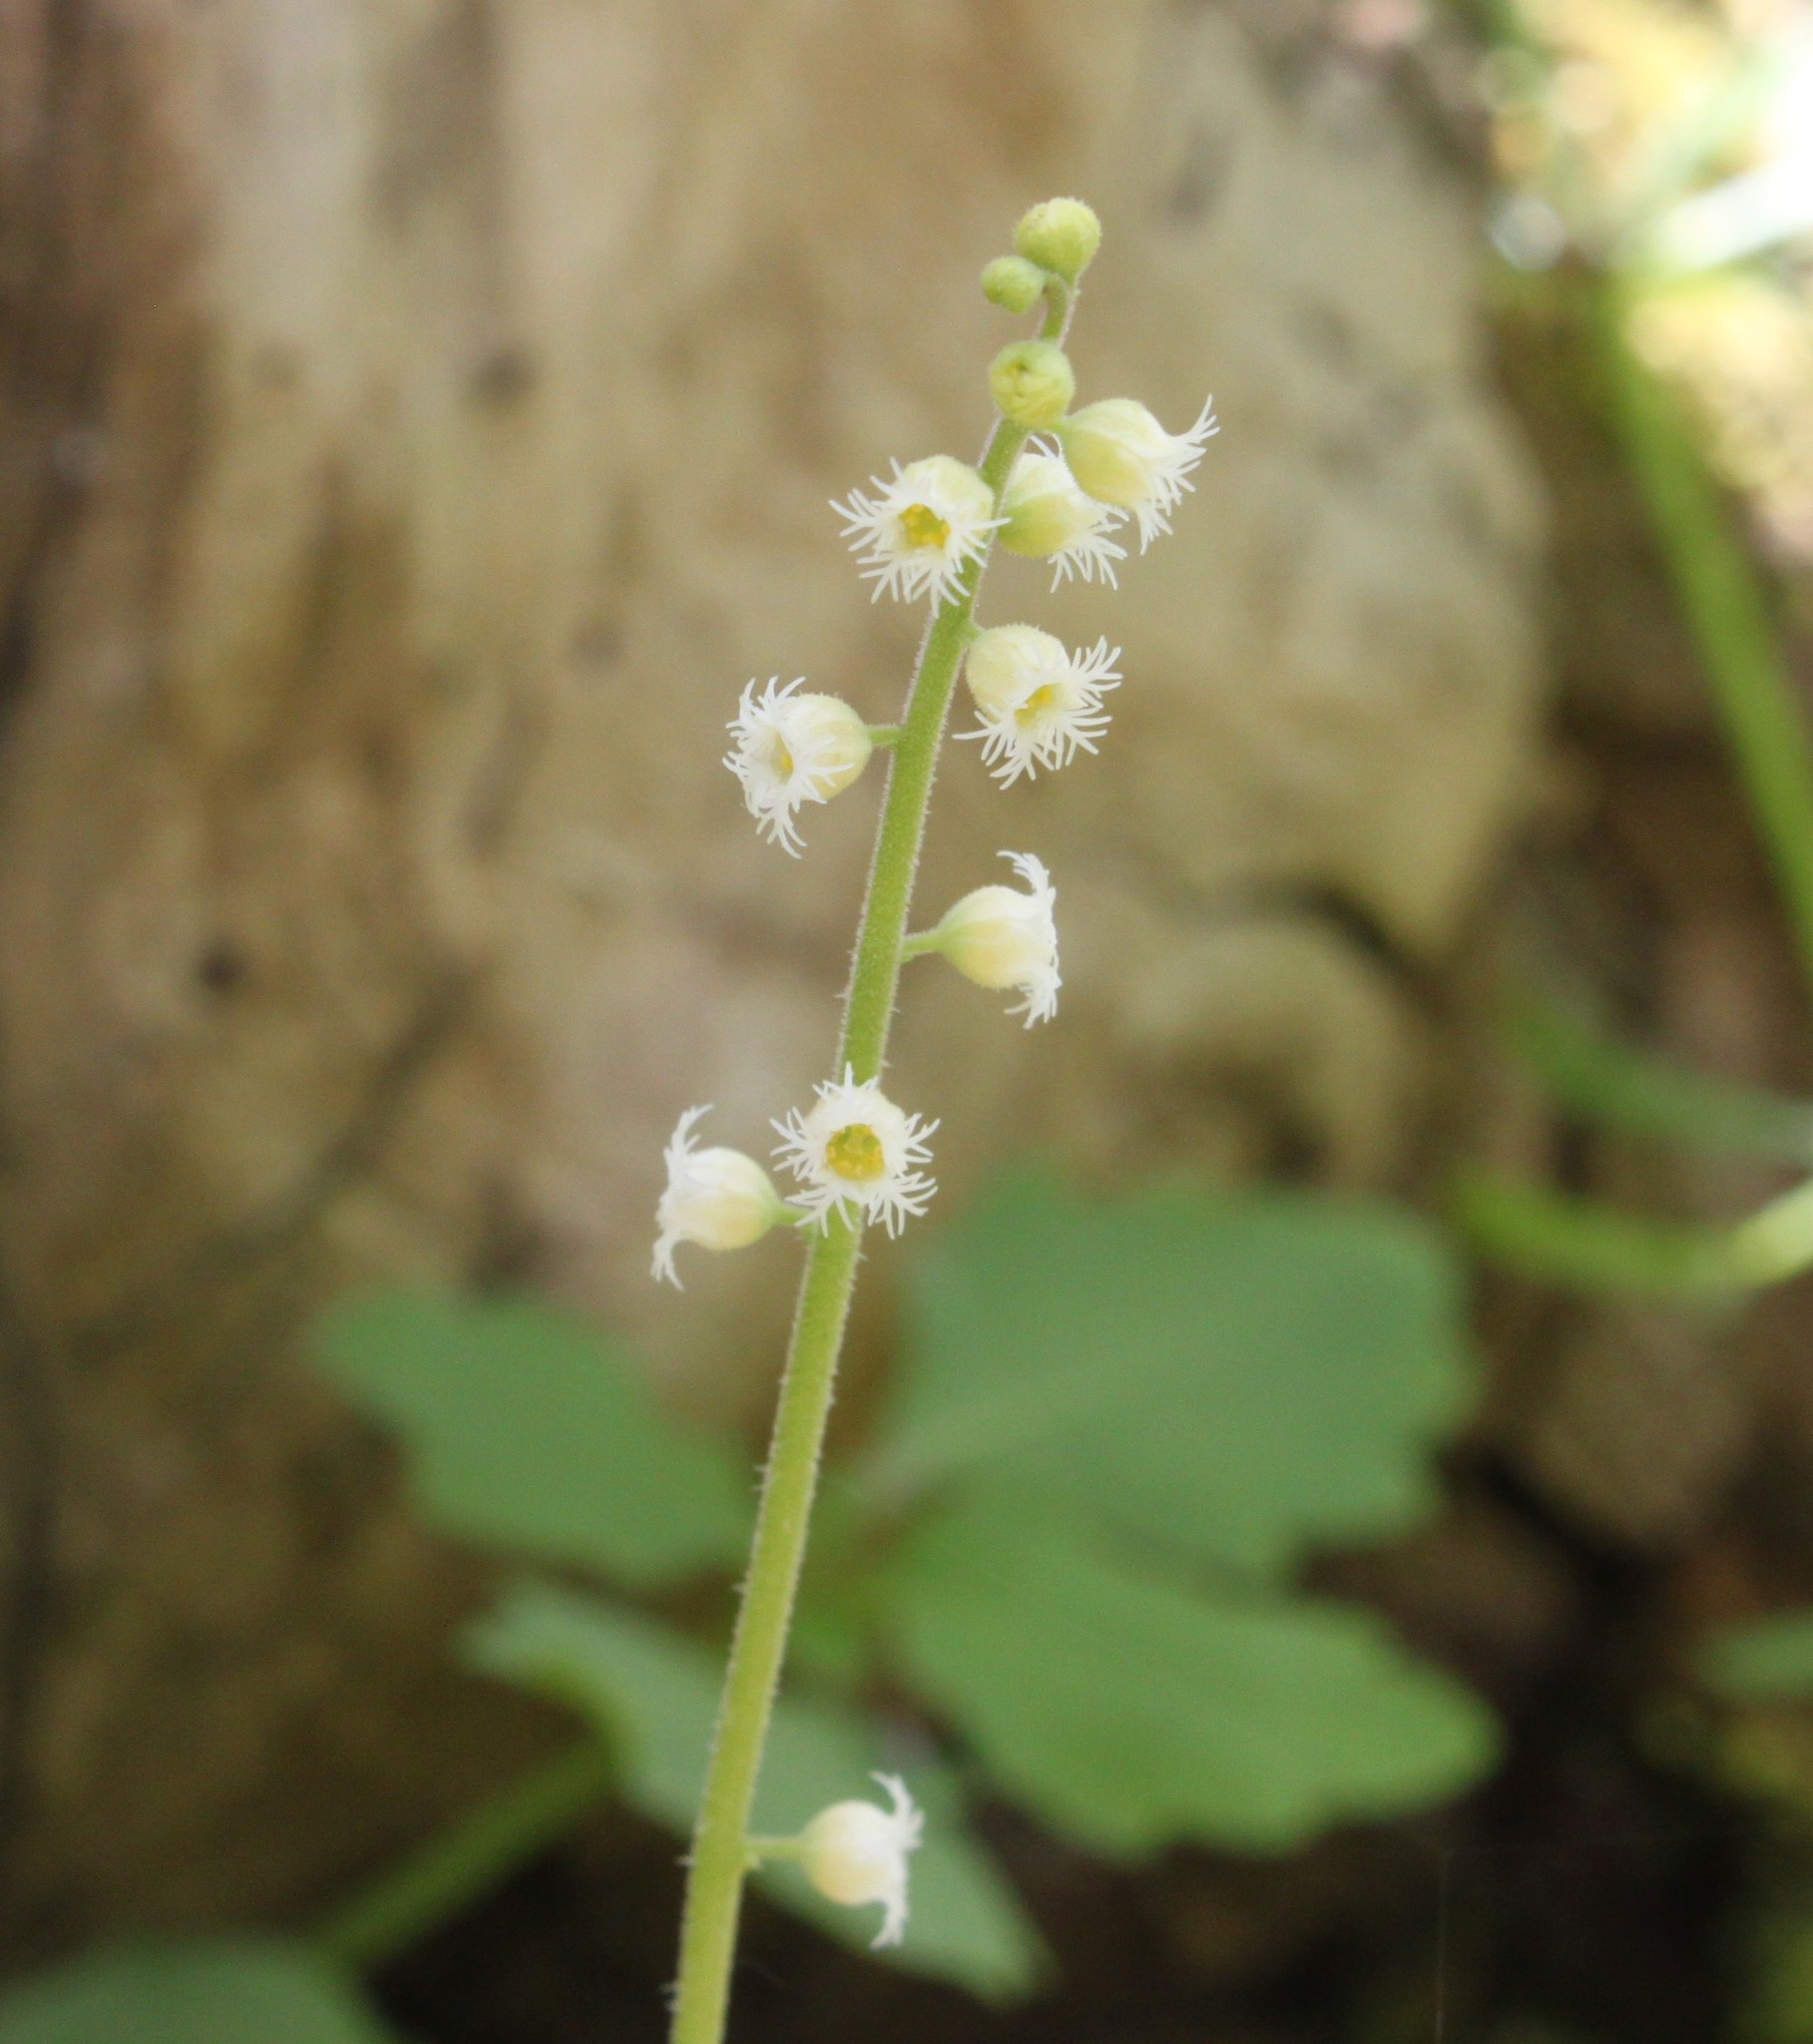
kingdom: Plantae
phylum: Tracheophyta
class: Magnoliopsida
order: Saxifragales
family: Saxifragaceae
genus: Mitella
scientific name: Mitella diphylla
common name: Coolwort
